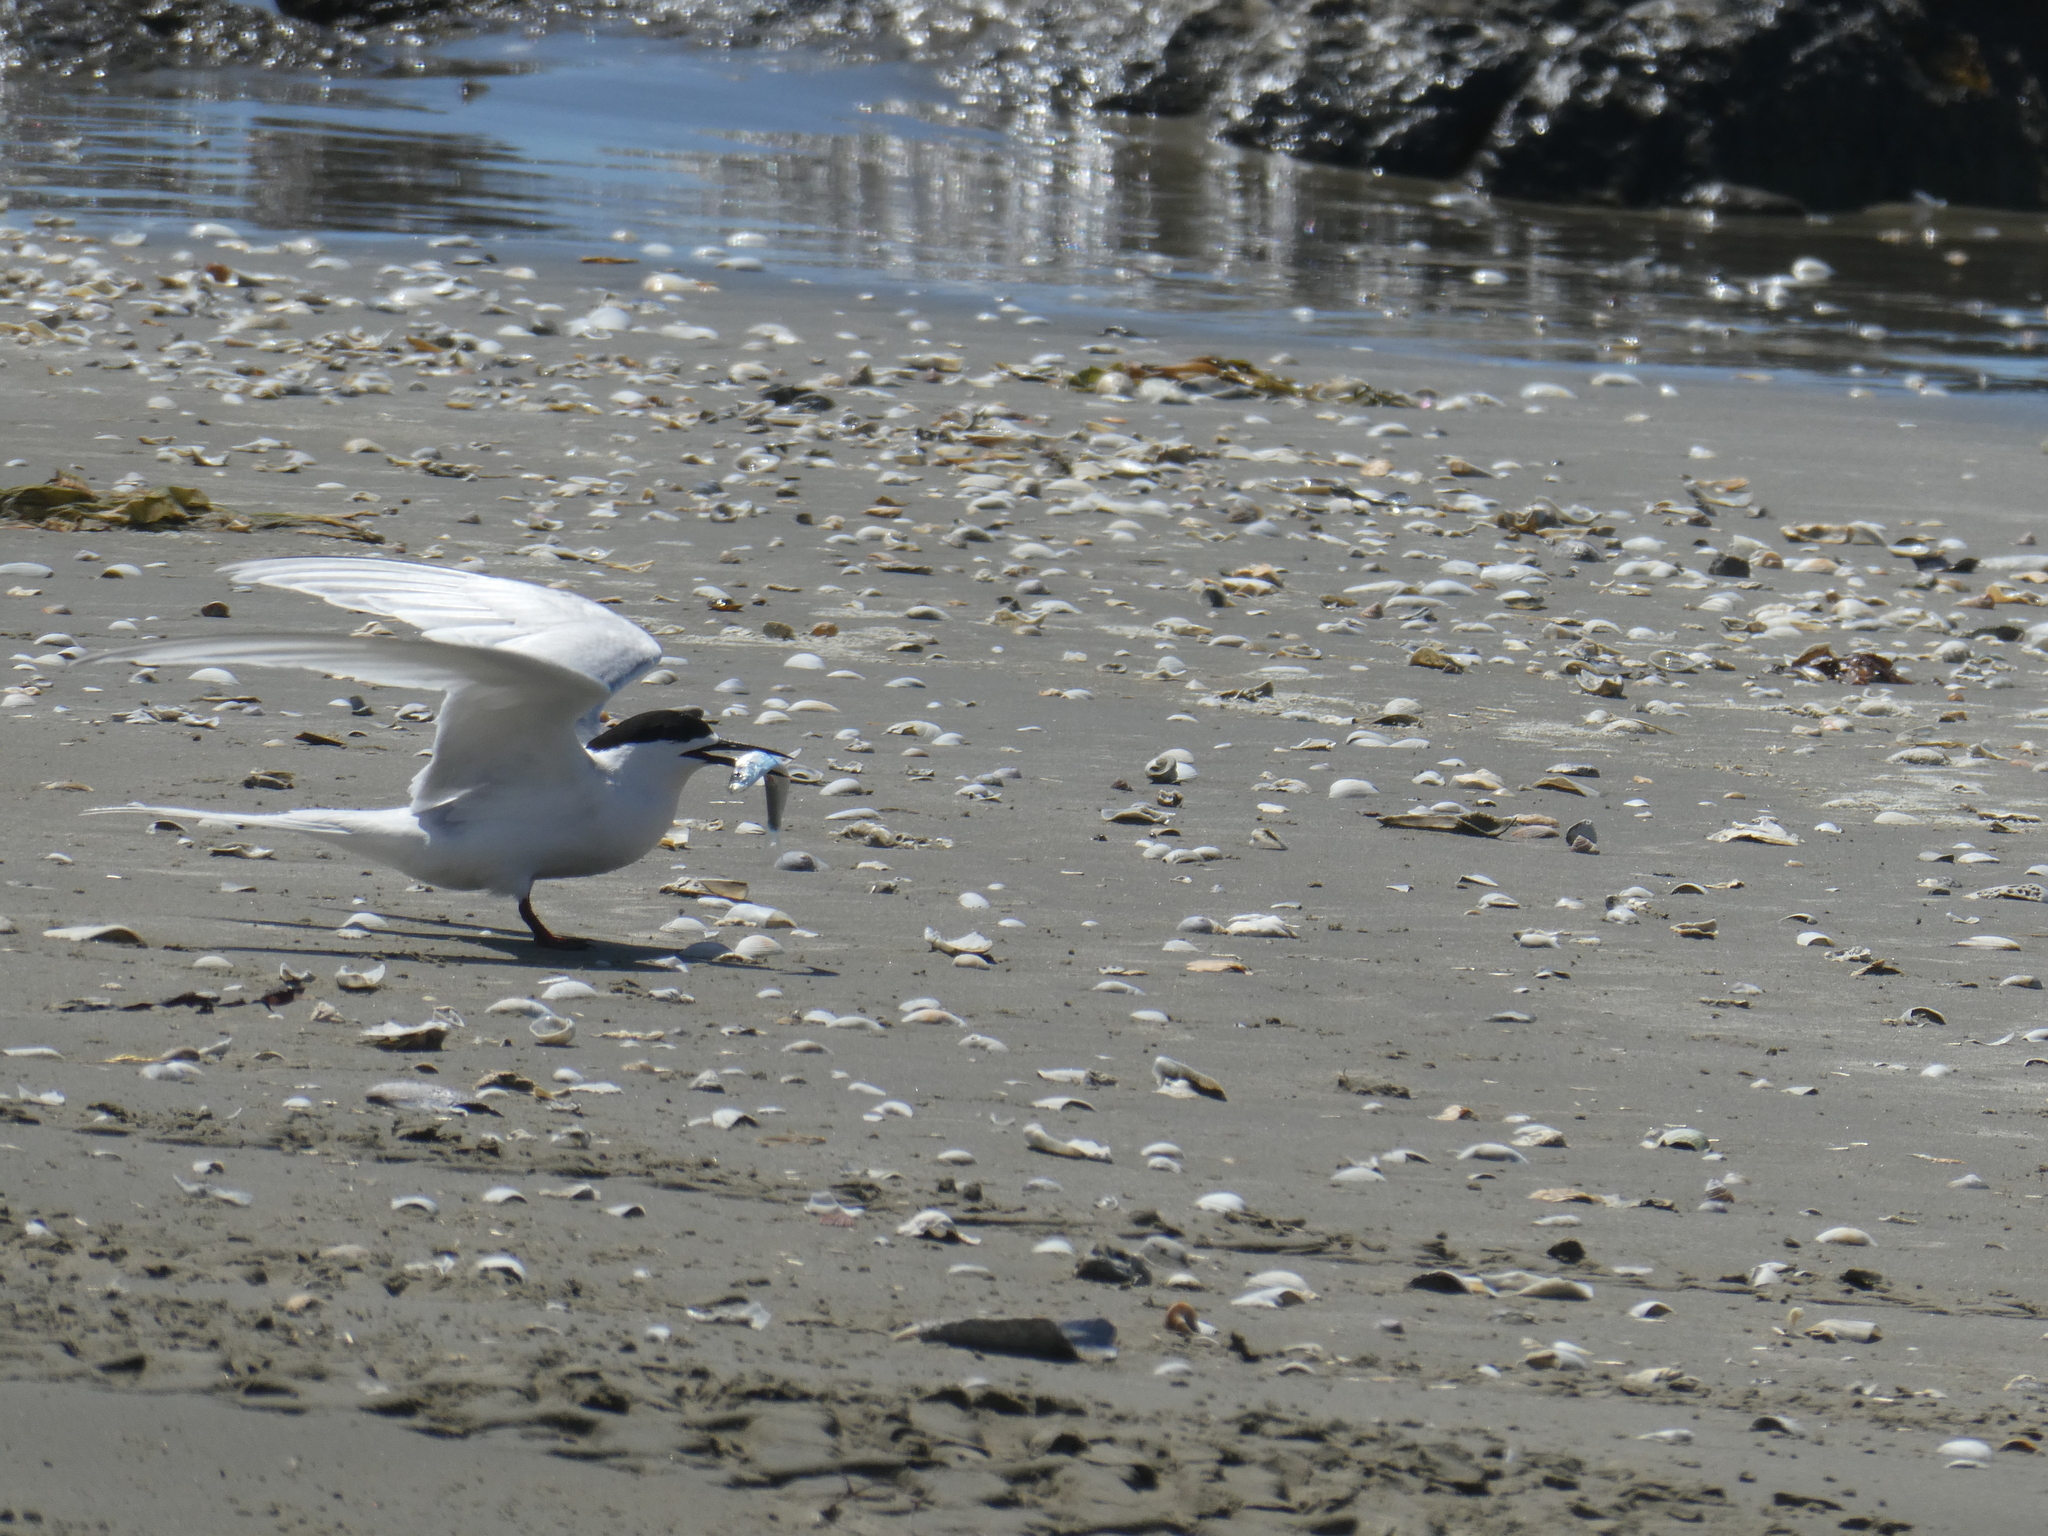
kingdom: Animalia
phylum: Chordata
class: Aves
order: Charadriiformes
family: Laridae
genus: Sterna
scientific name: Sterna striata
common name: White-fronted tern
